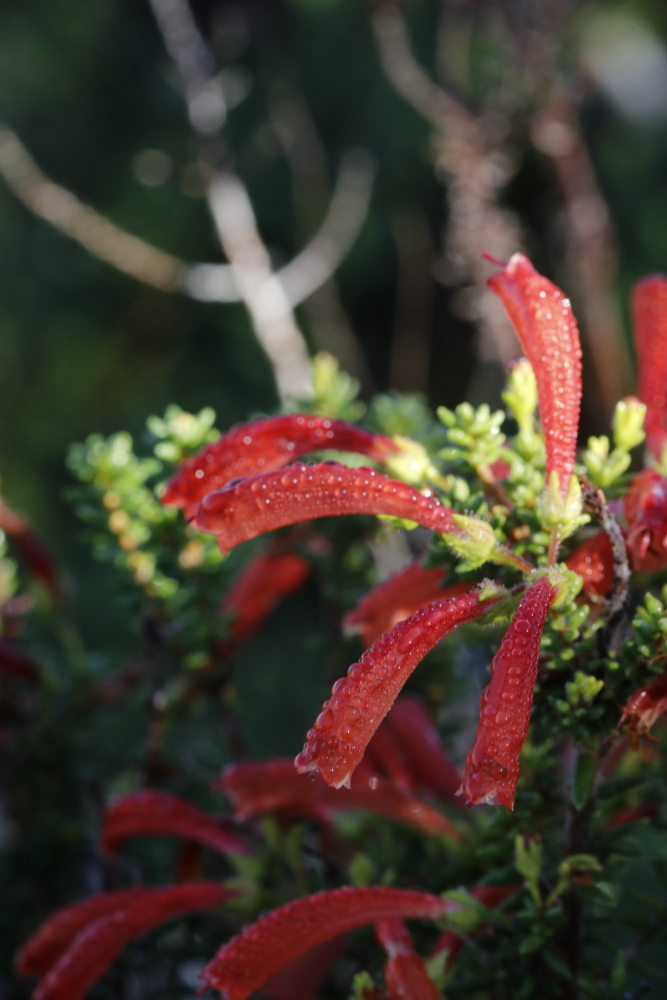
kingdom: Plantae
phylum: Tracheophyta
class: Magnoliopsida
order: Ericales
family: Ericaceae
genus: Erica
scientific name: Erica glandulosa
